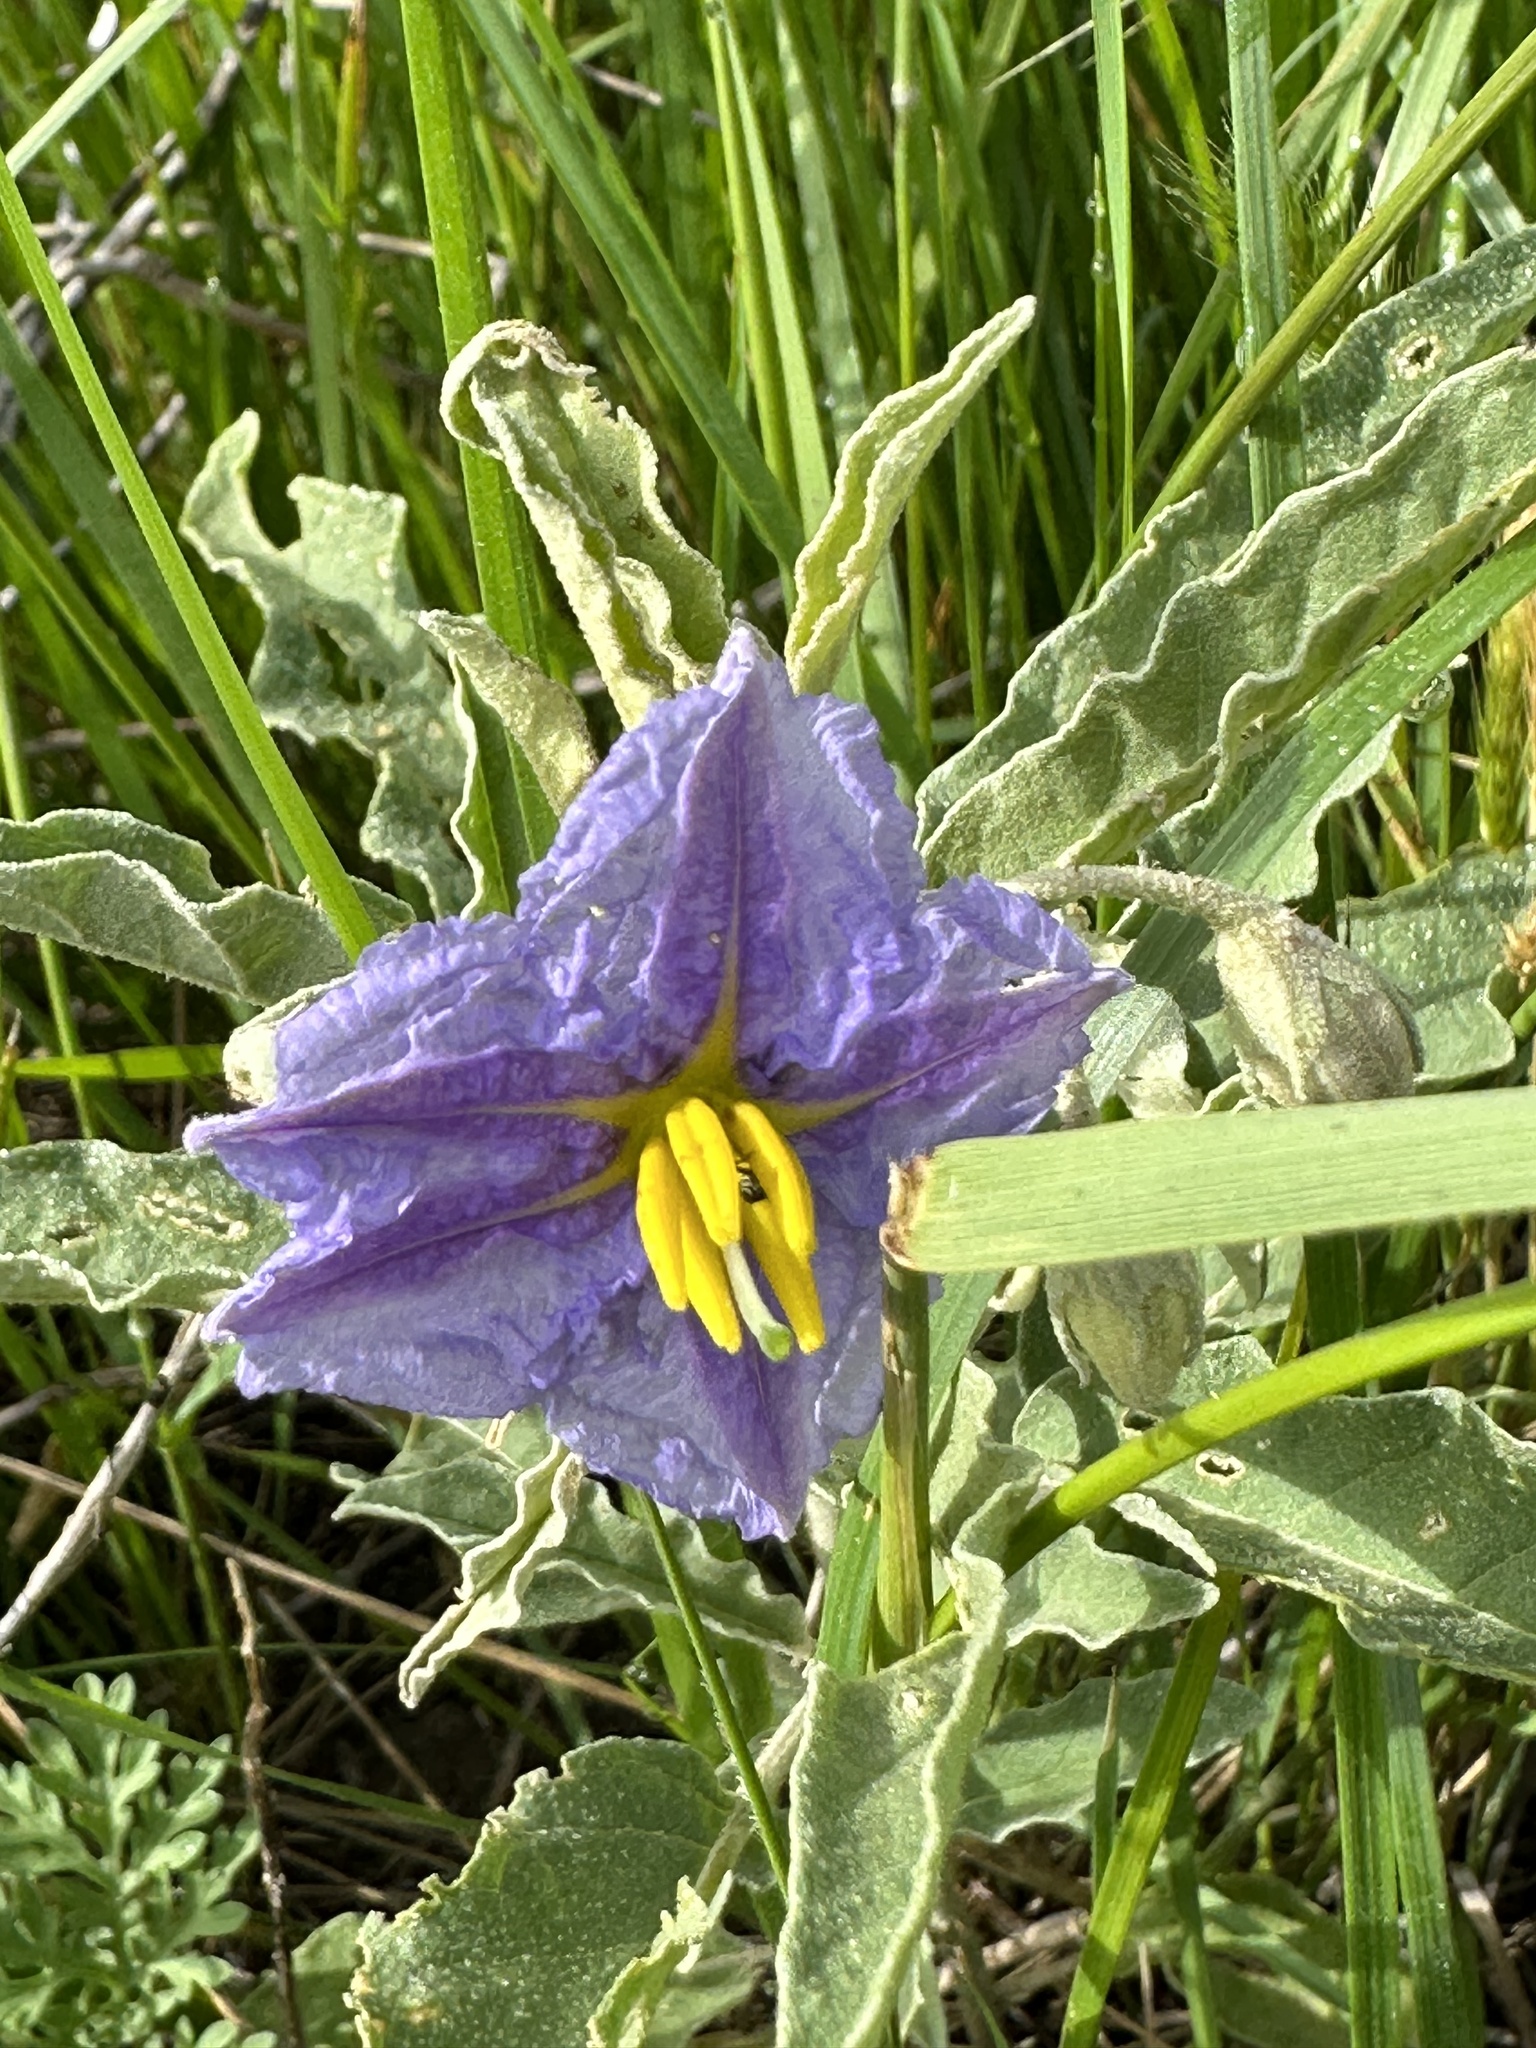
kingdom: Plantae
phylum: Tracheophyta
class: Magnoliopsida
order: Solanales
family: Solanaceae
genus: Solanum
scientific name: Solanum elaeagnifolium
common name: Silverleaf nightshade
